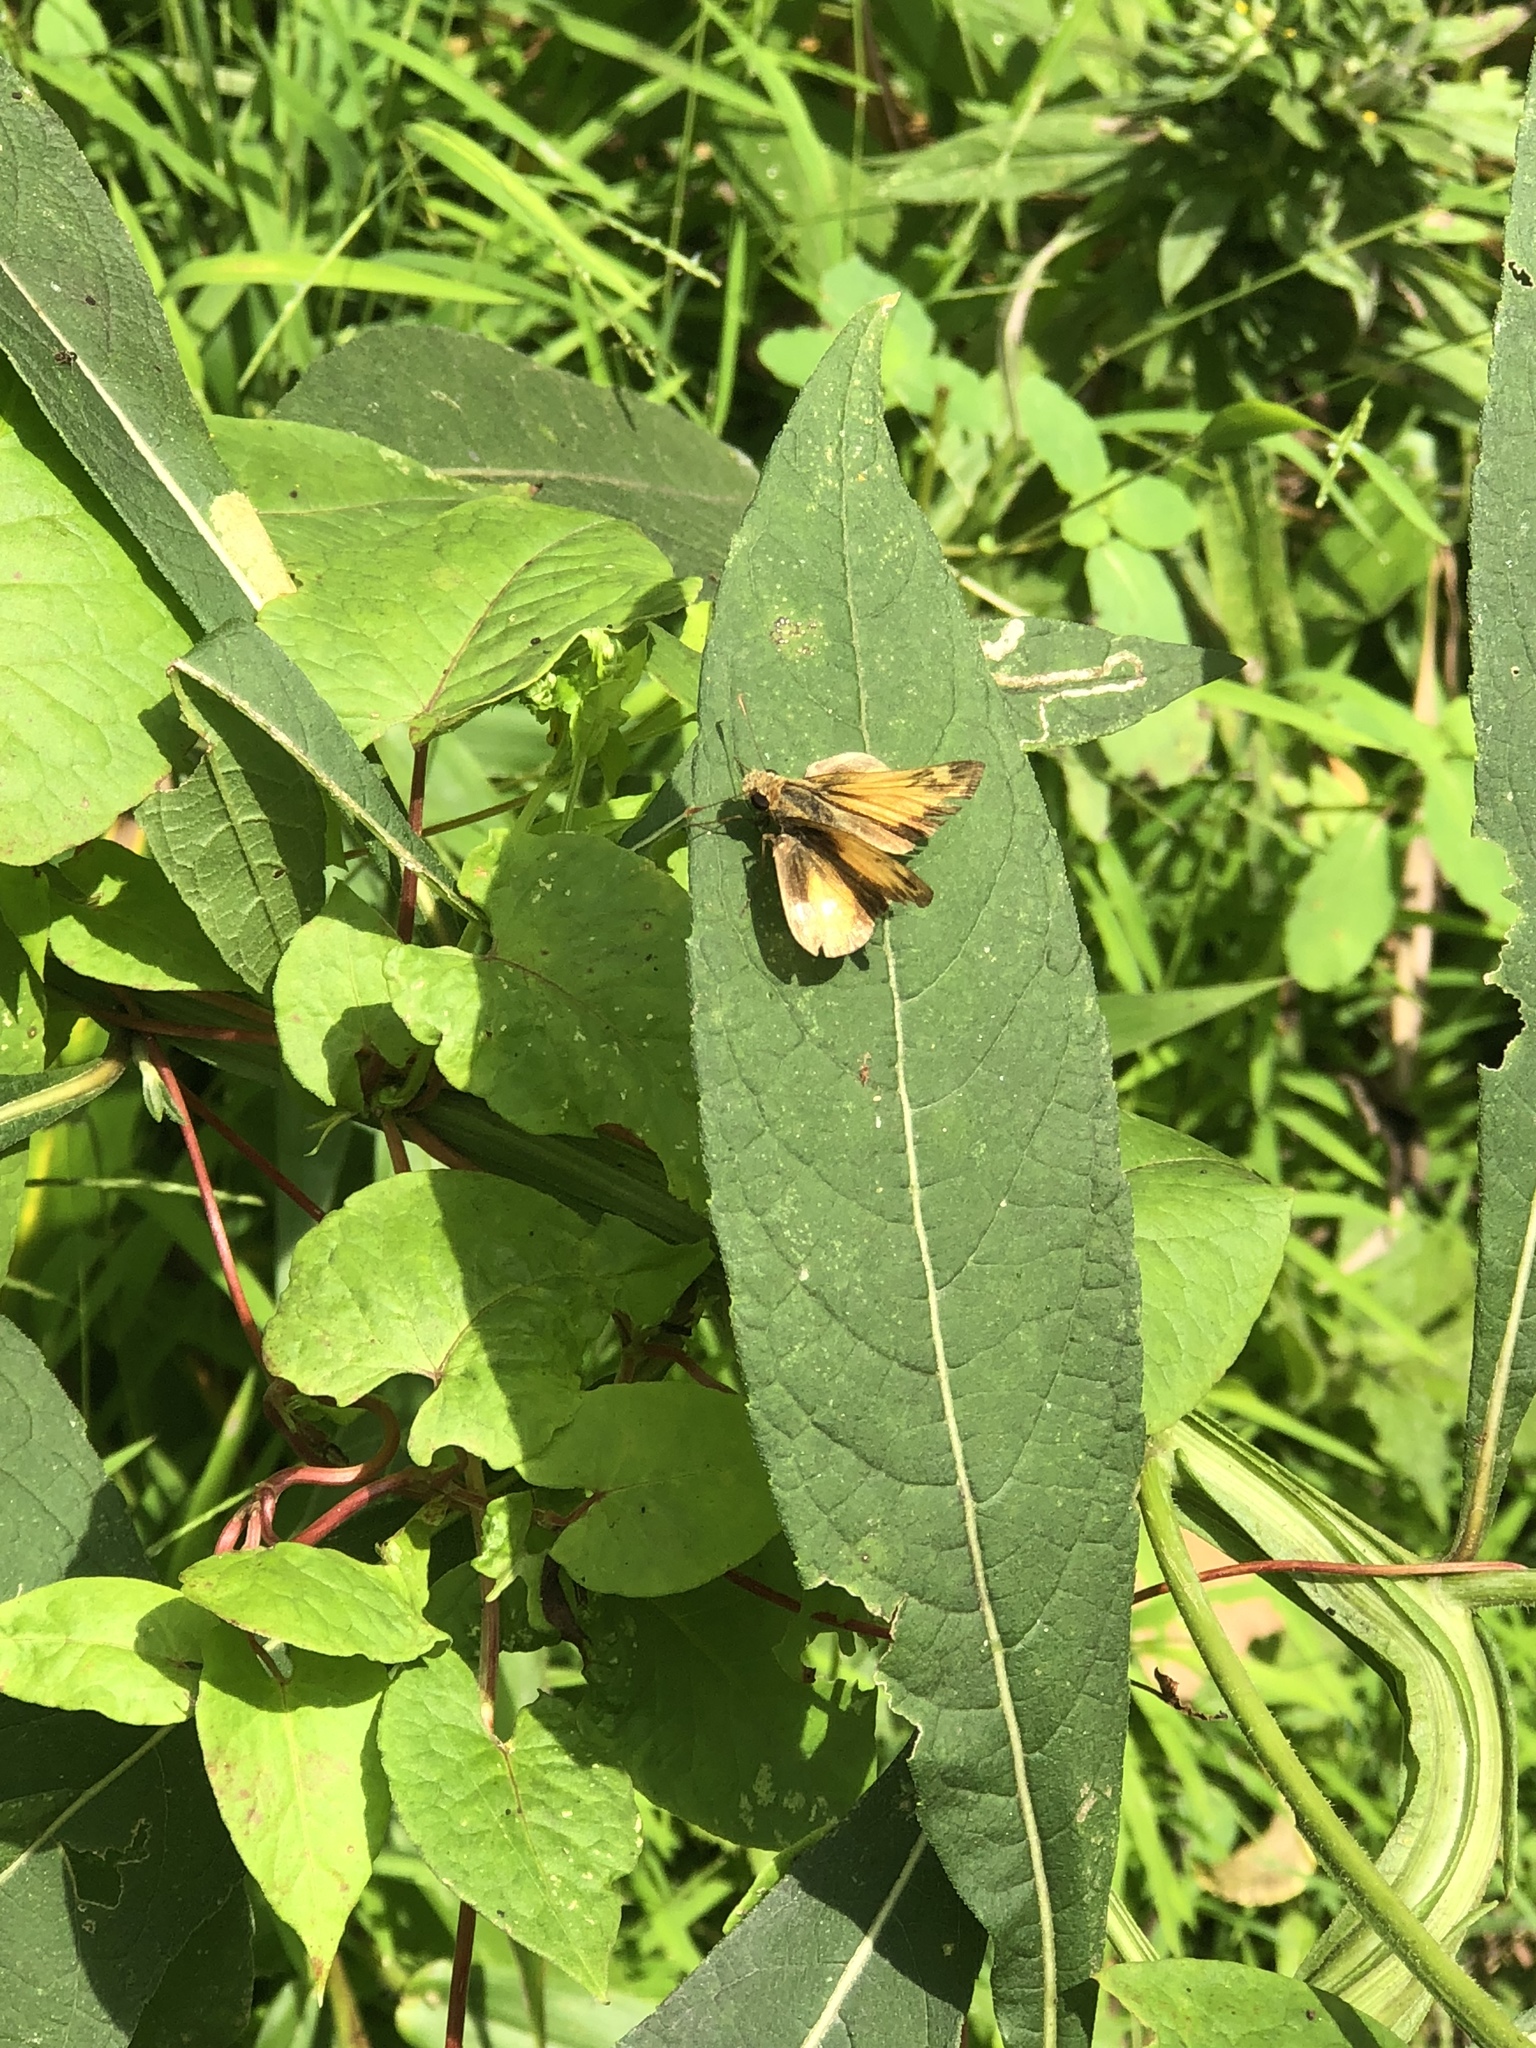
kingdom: Animalia
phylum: Arthropoda
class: Insecta
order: Lepidoptera
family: Hesperiidae
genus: Lon
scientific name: Lon zabulon
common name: Zabulon skipper
